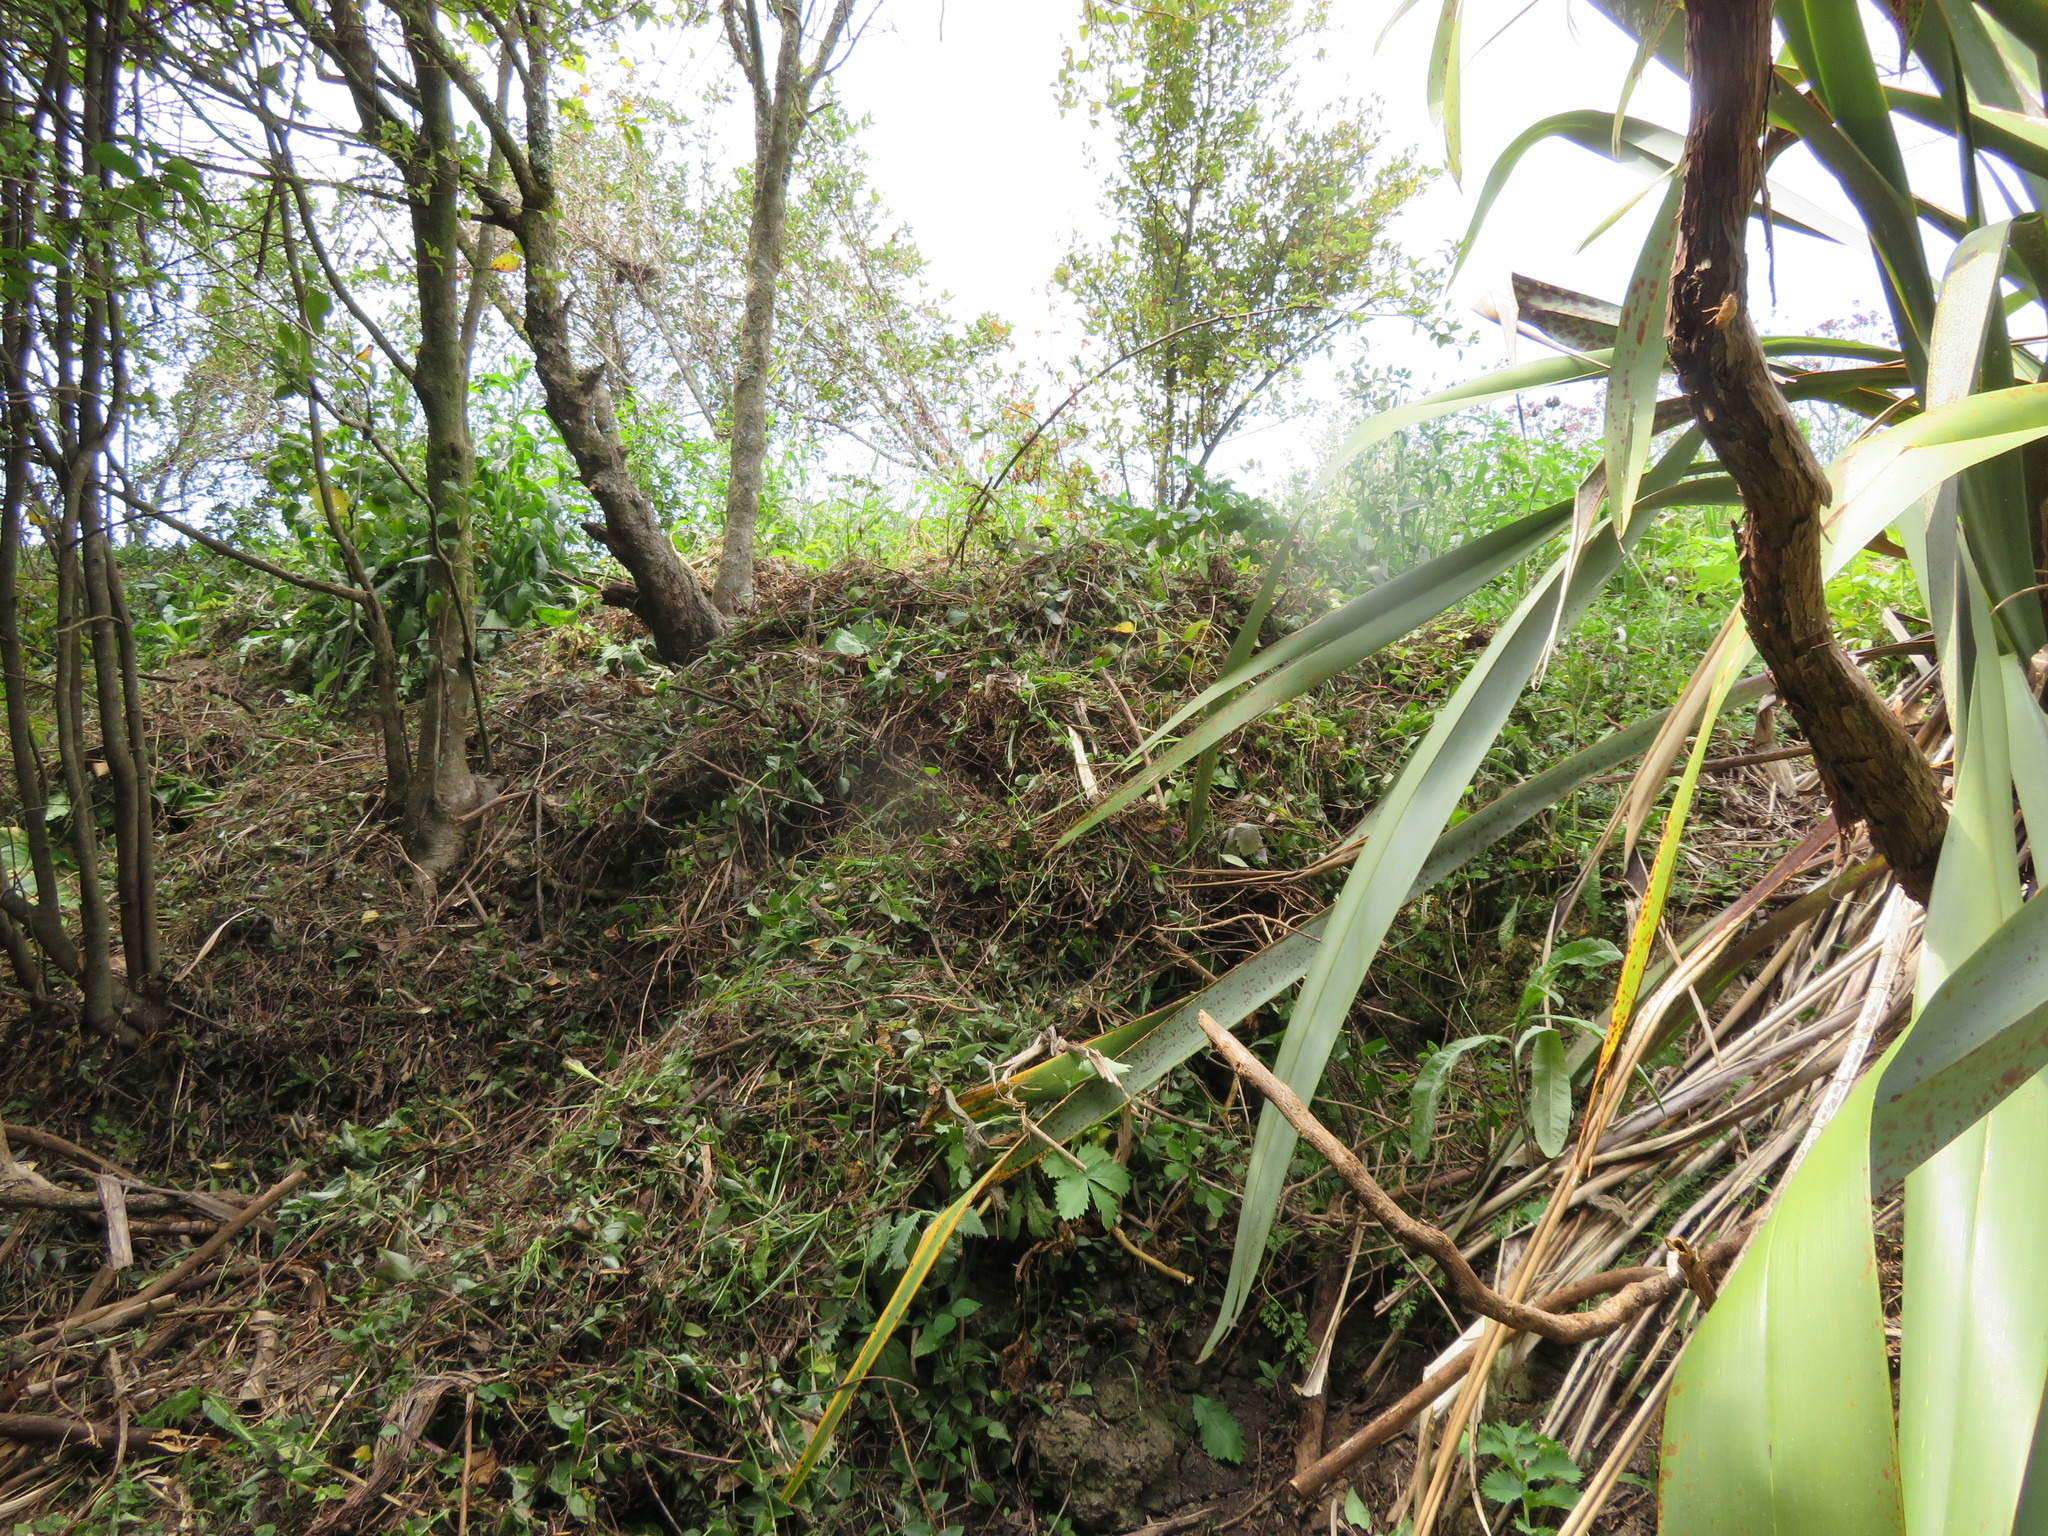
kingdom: Plantae
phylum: Tracheophyta
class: Liliopsida
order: Commelinales
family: Commelinaceae
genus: Tradescantia
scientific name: Tradescantia fluminensis
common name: Wandering-jew
